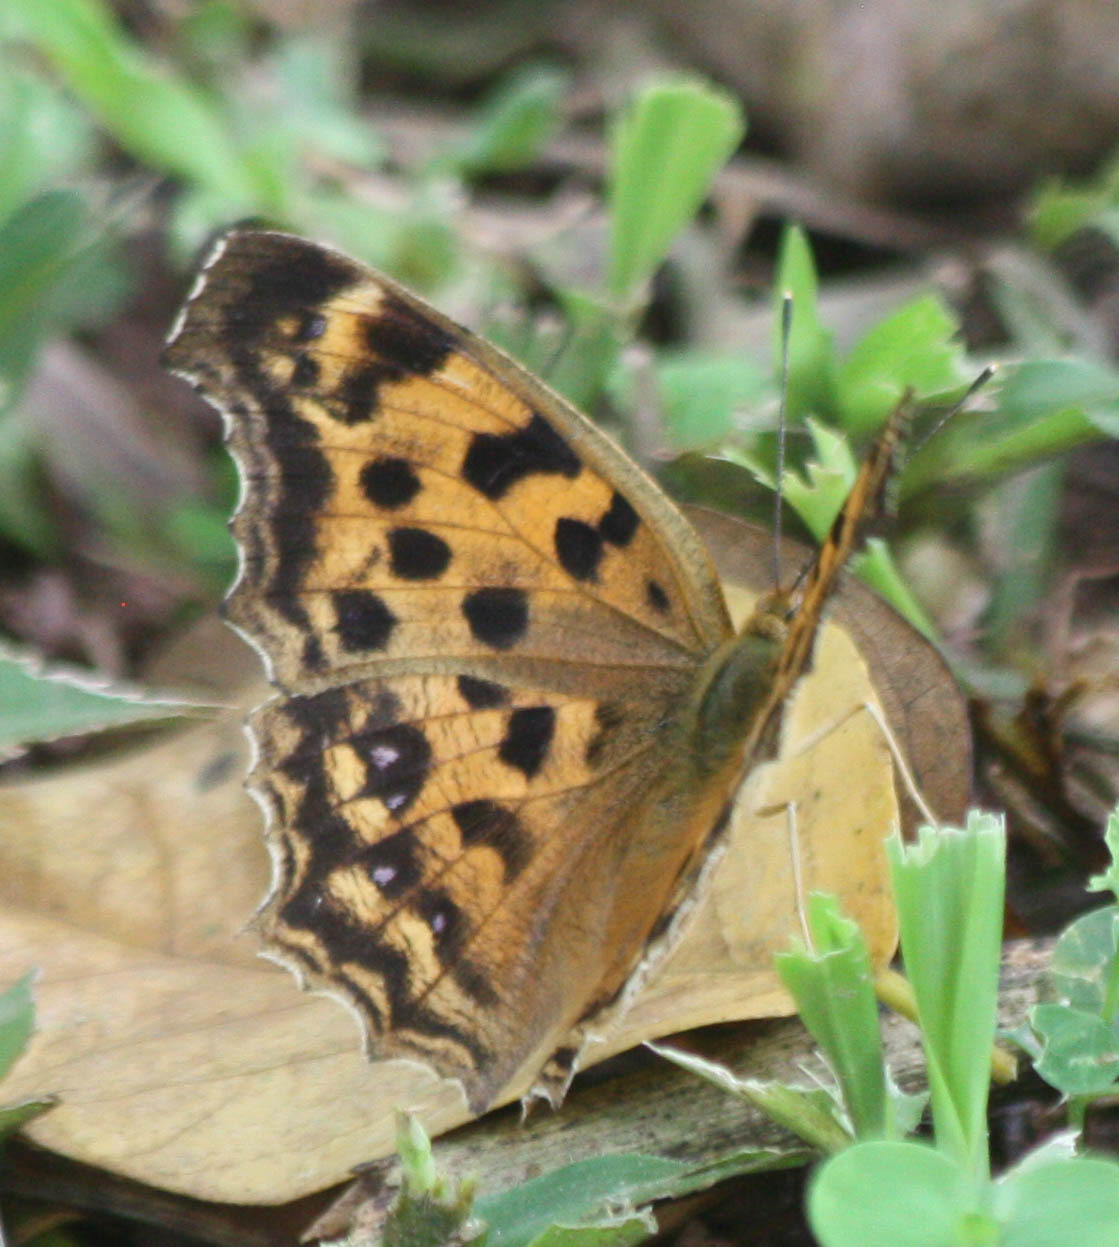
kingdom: Animalia
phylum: Arthropoda
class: Insecta
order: Lepidoptera
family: Nymphalidae
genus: Polygonia
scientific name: Polygonia c-aureum
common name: Asian comma
